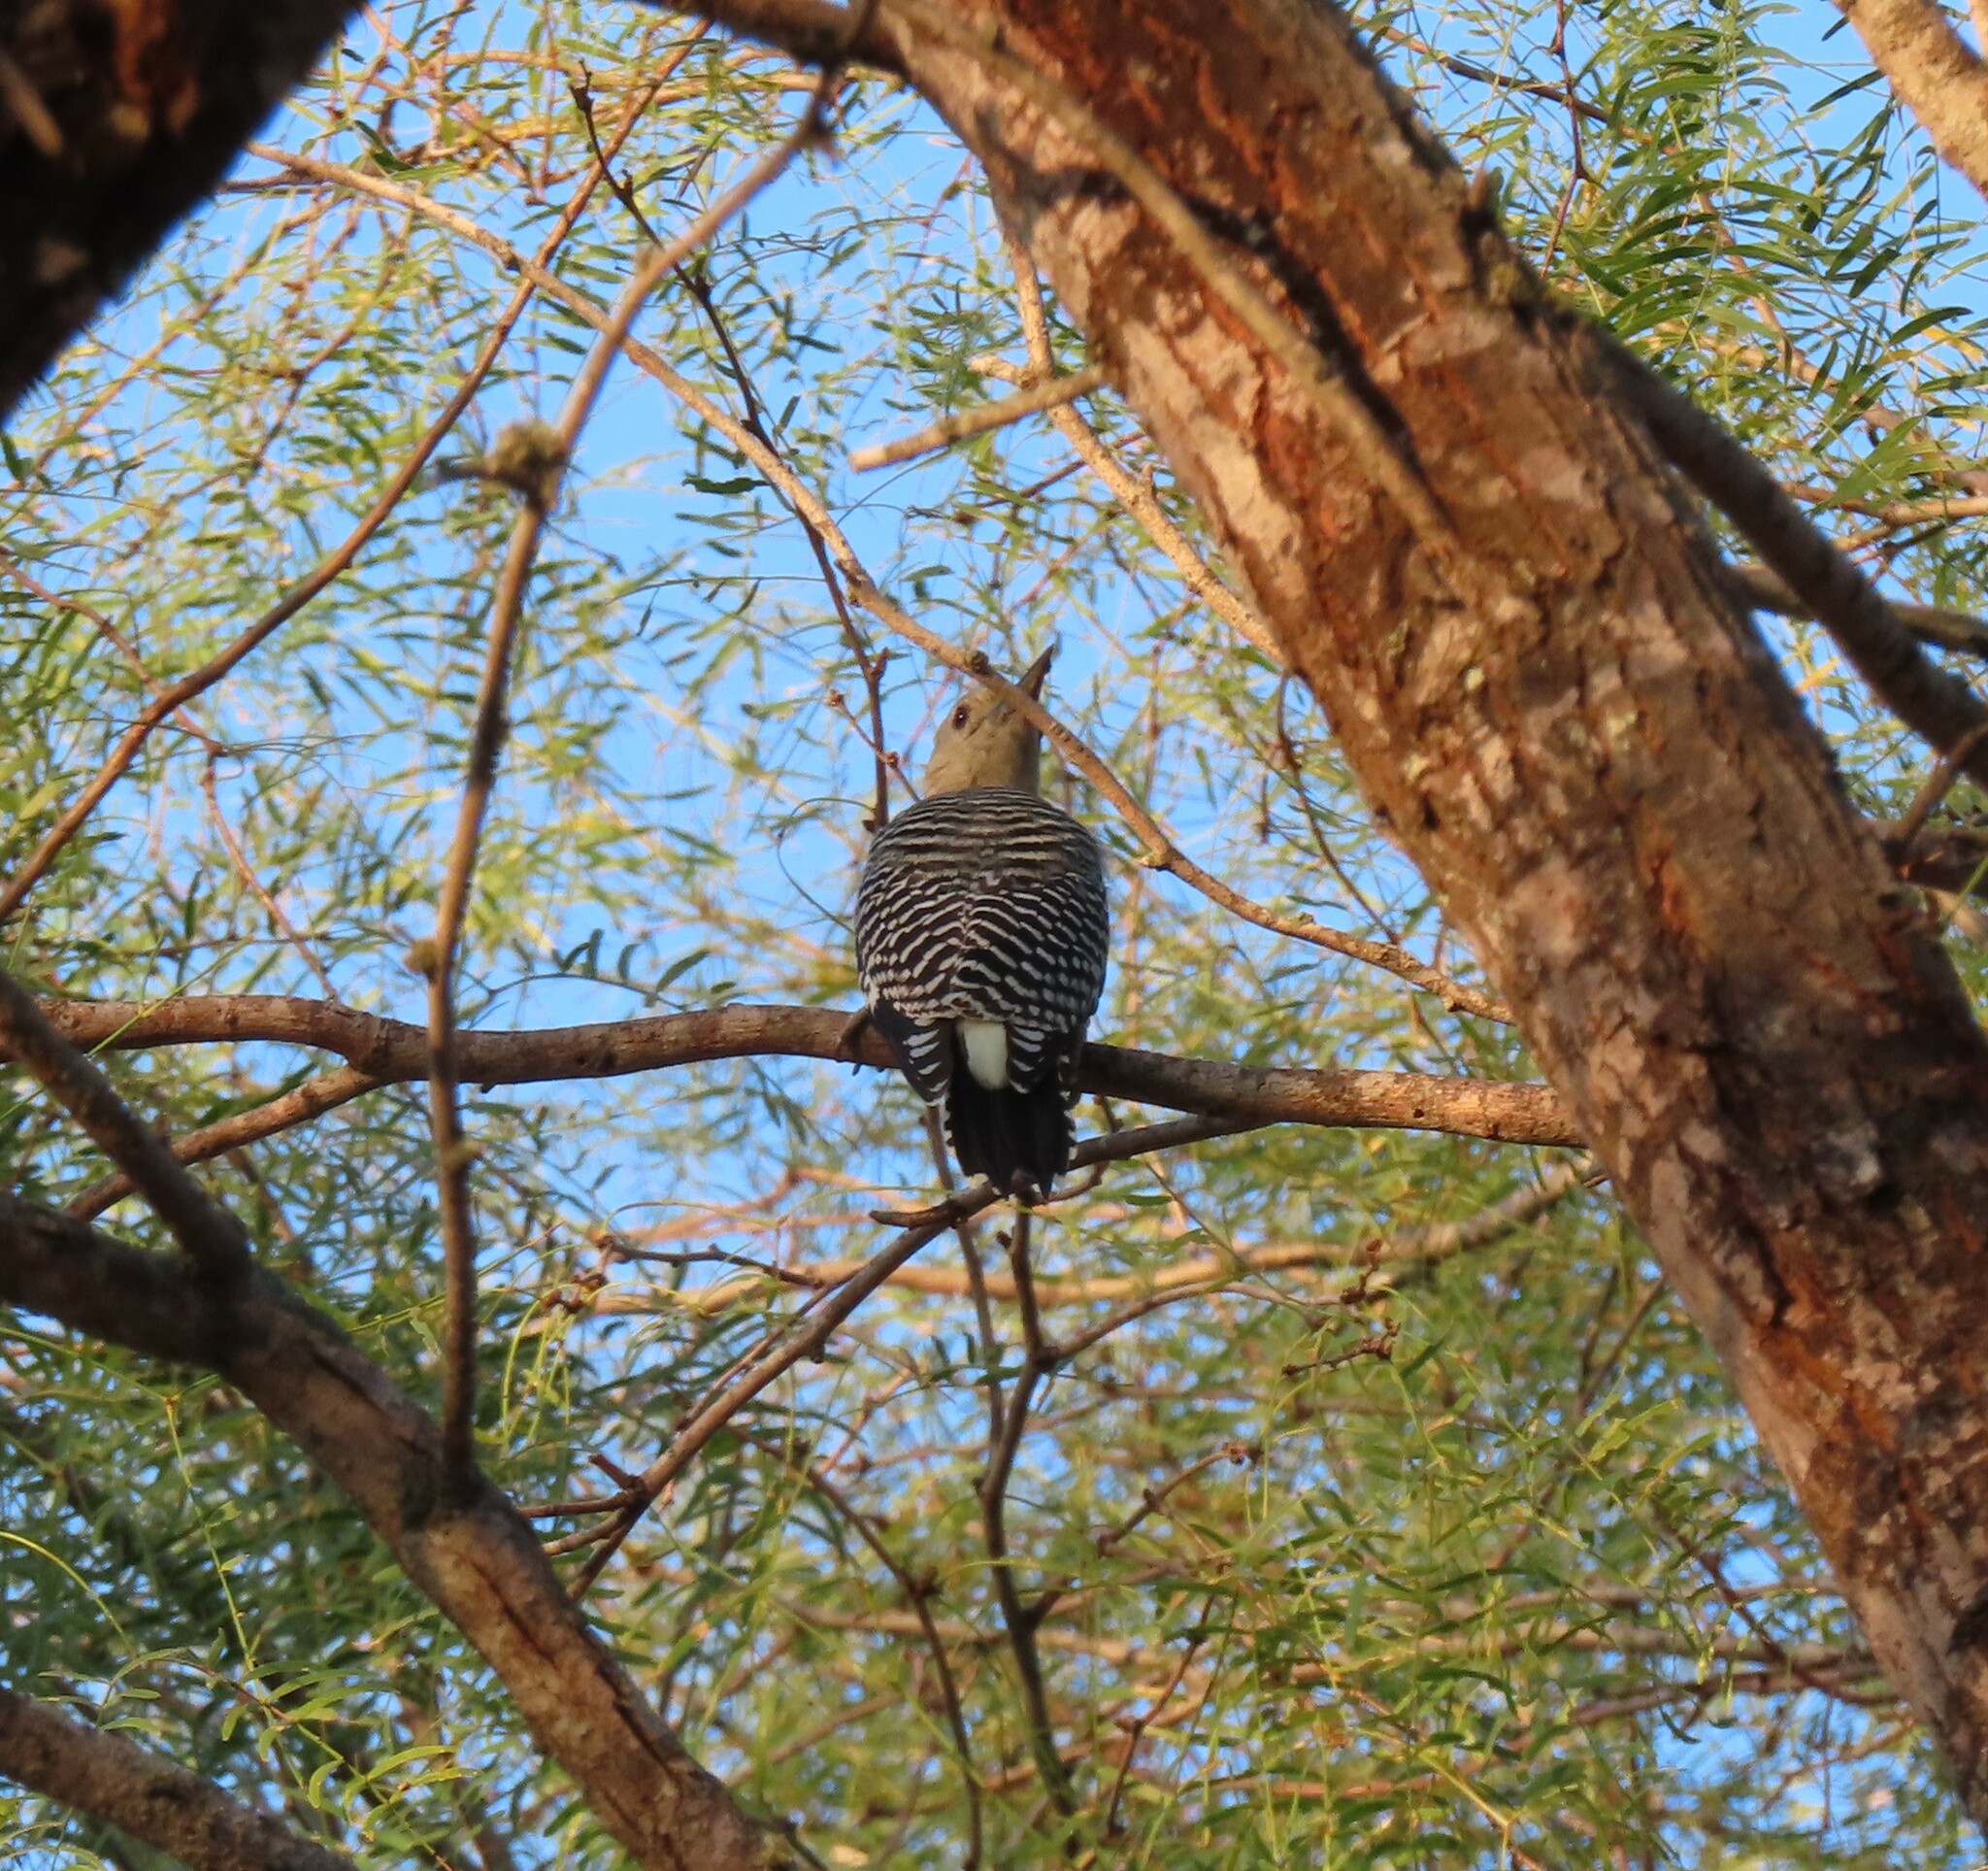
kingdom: Animalia
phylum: Chordata
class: Aves
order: Piciformes
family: Picidae
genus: Melanerpes
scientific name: Melanerpes aurifrons
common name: Golden-fronted woodpecker
